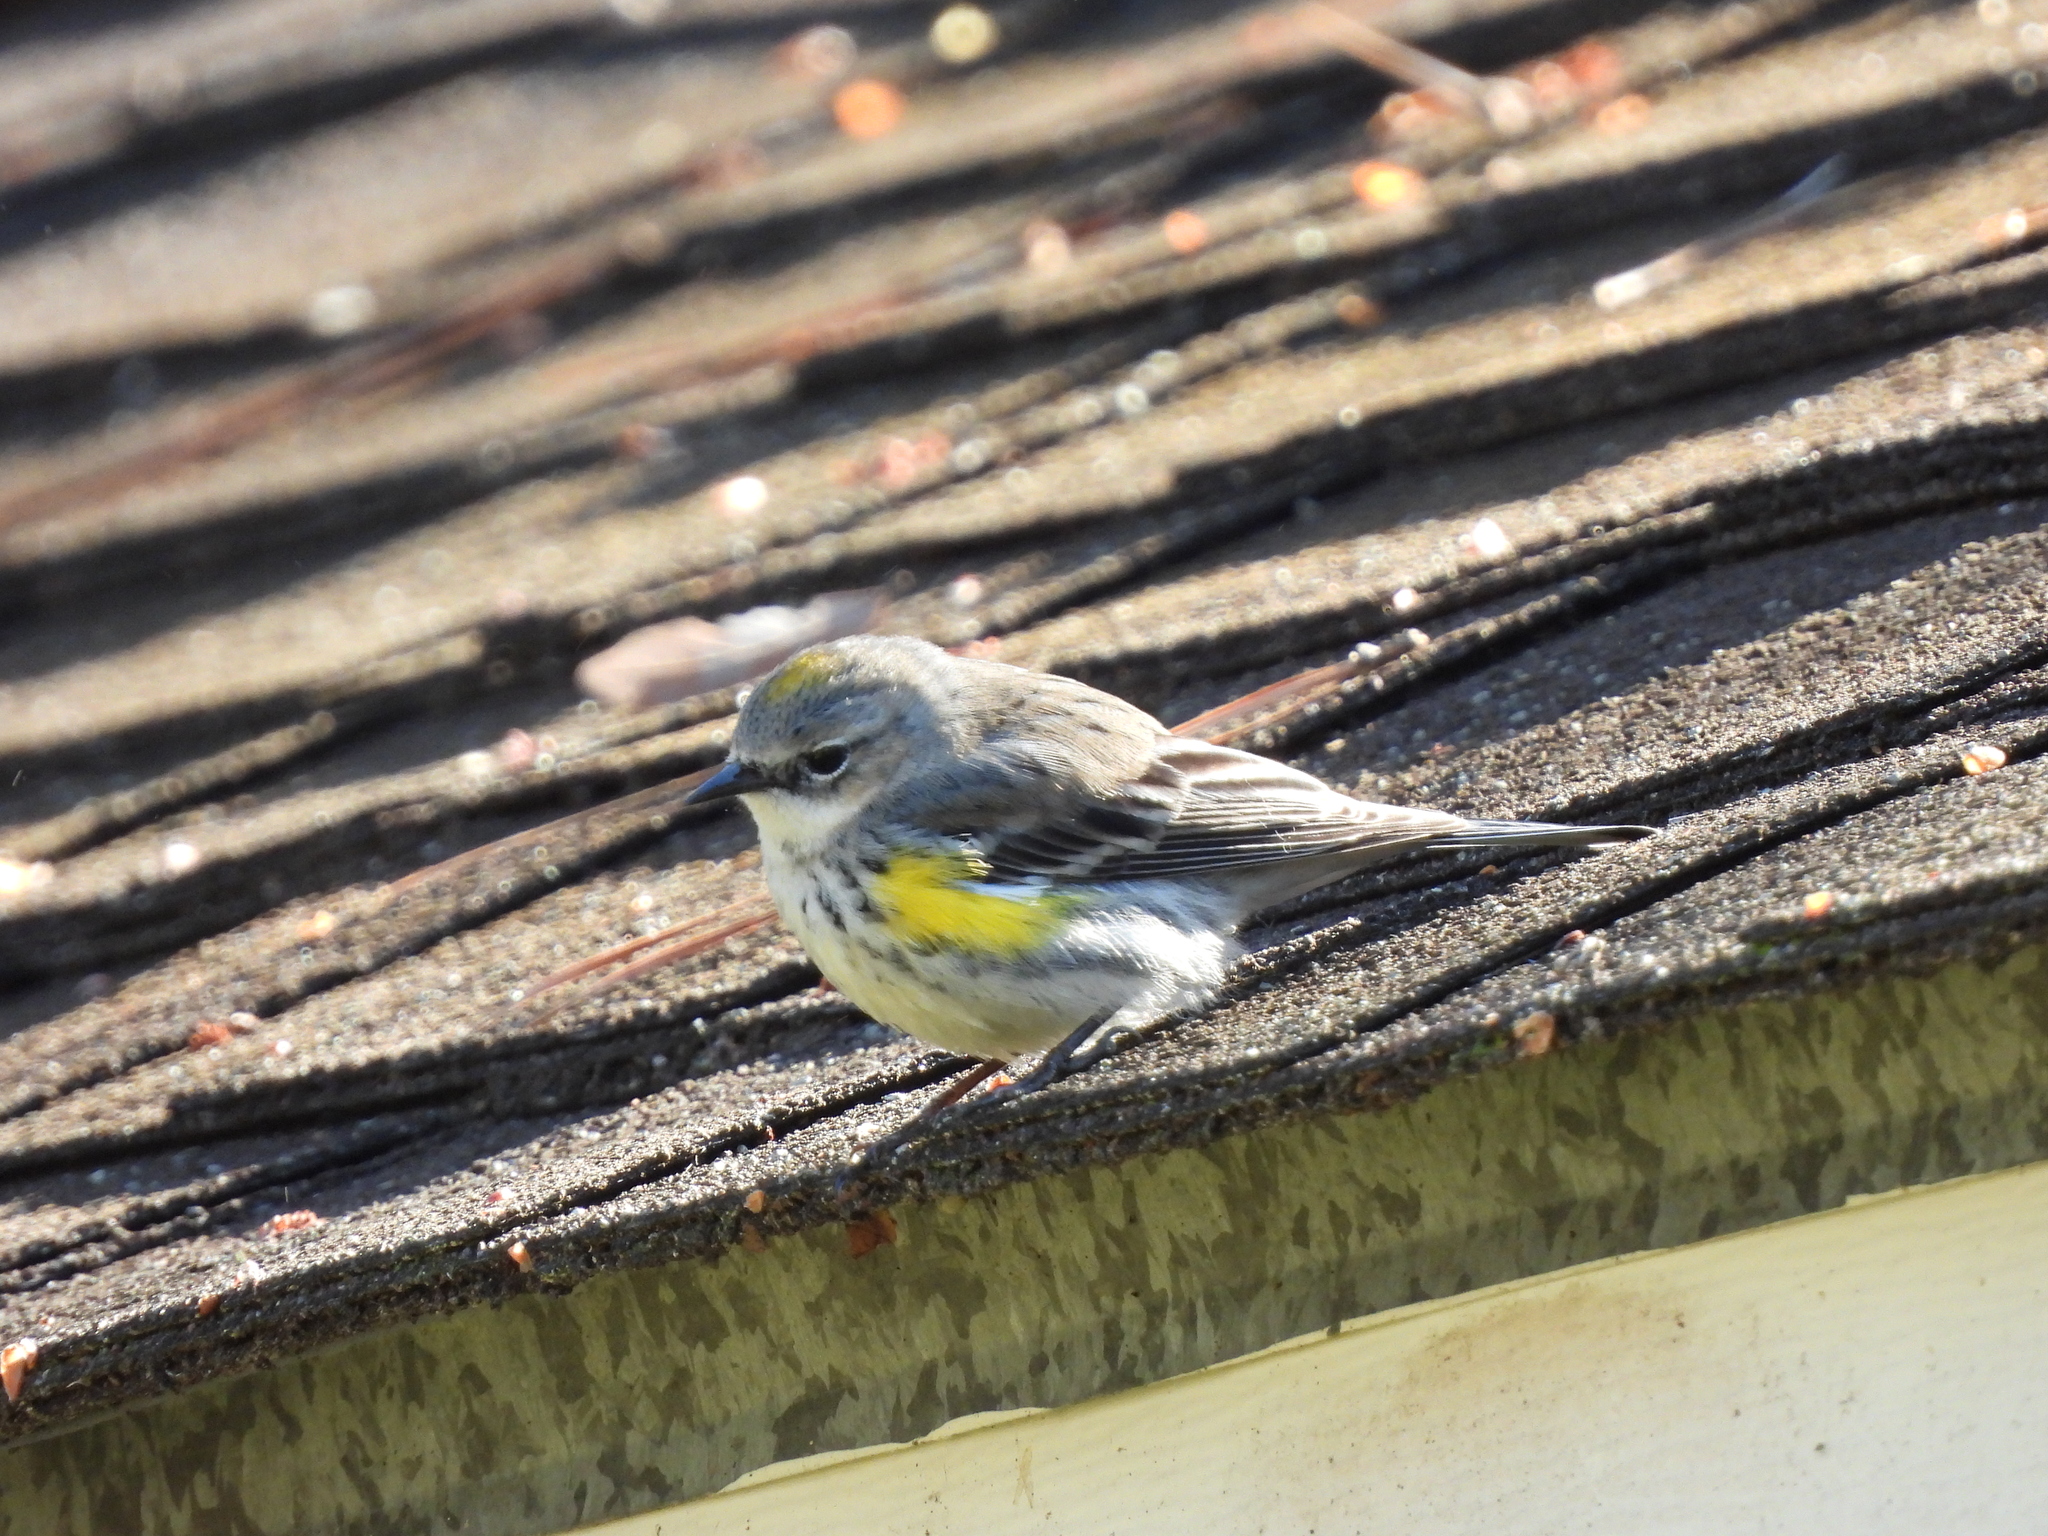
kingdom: Animalia
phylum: Chordata
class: Aves
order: Passeriformes
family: Parulidae
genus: Setophaga
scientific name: Setophaga coronata
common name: Myrtle warbler
